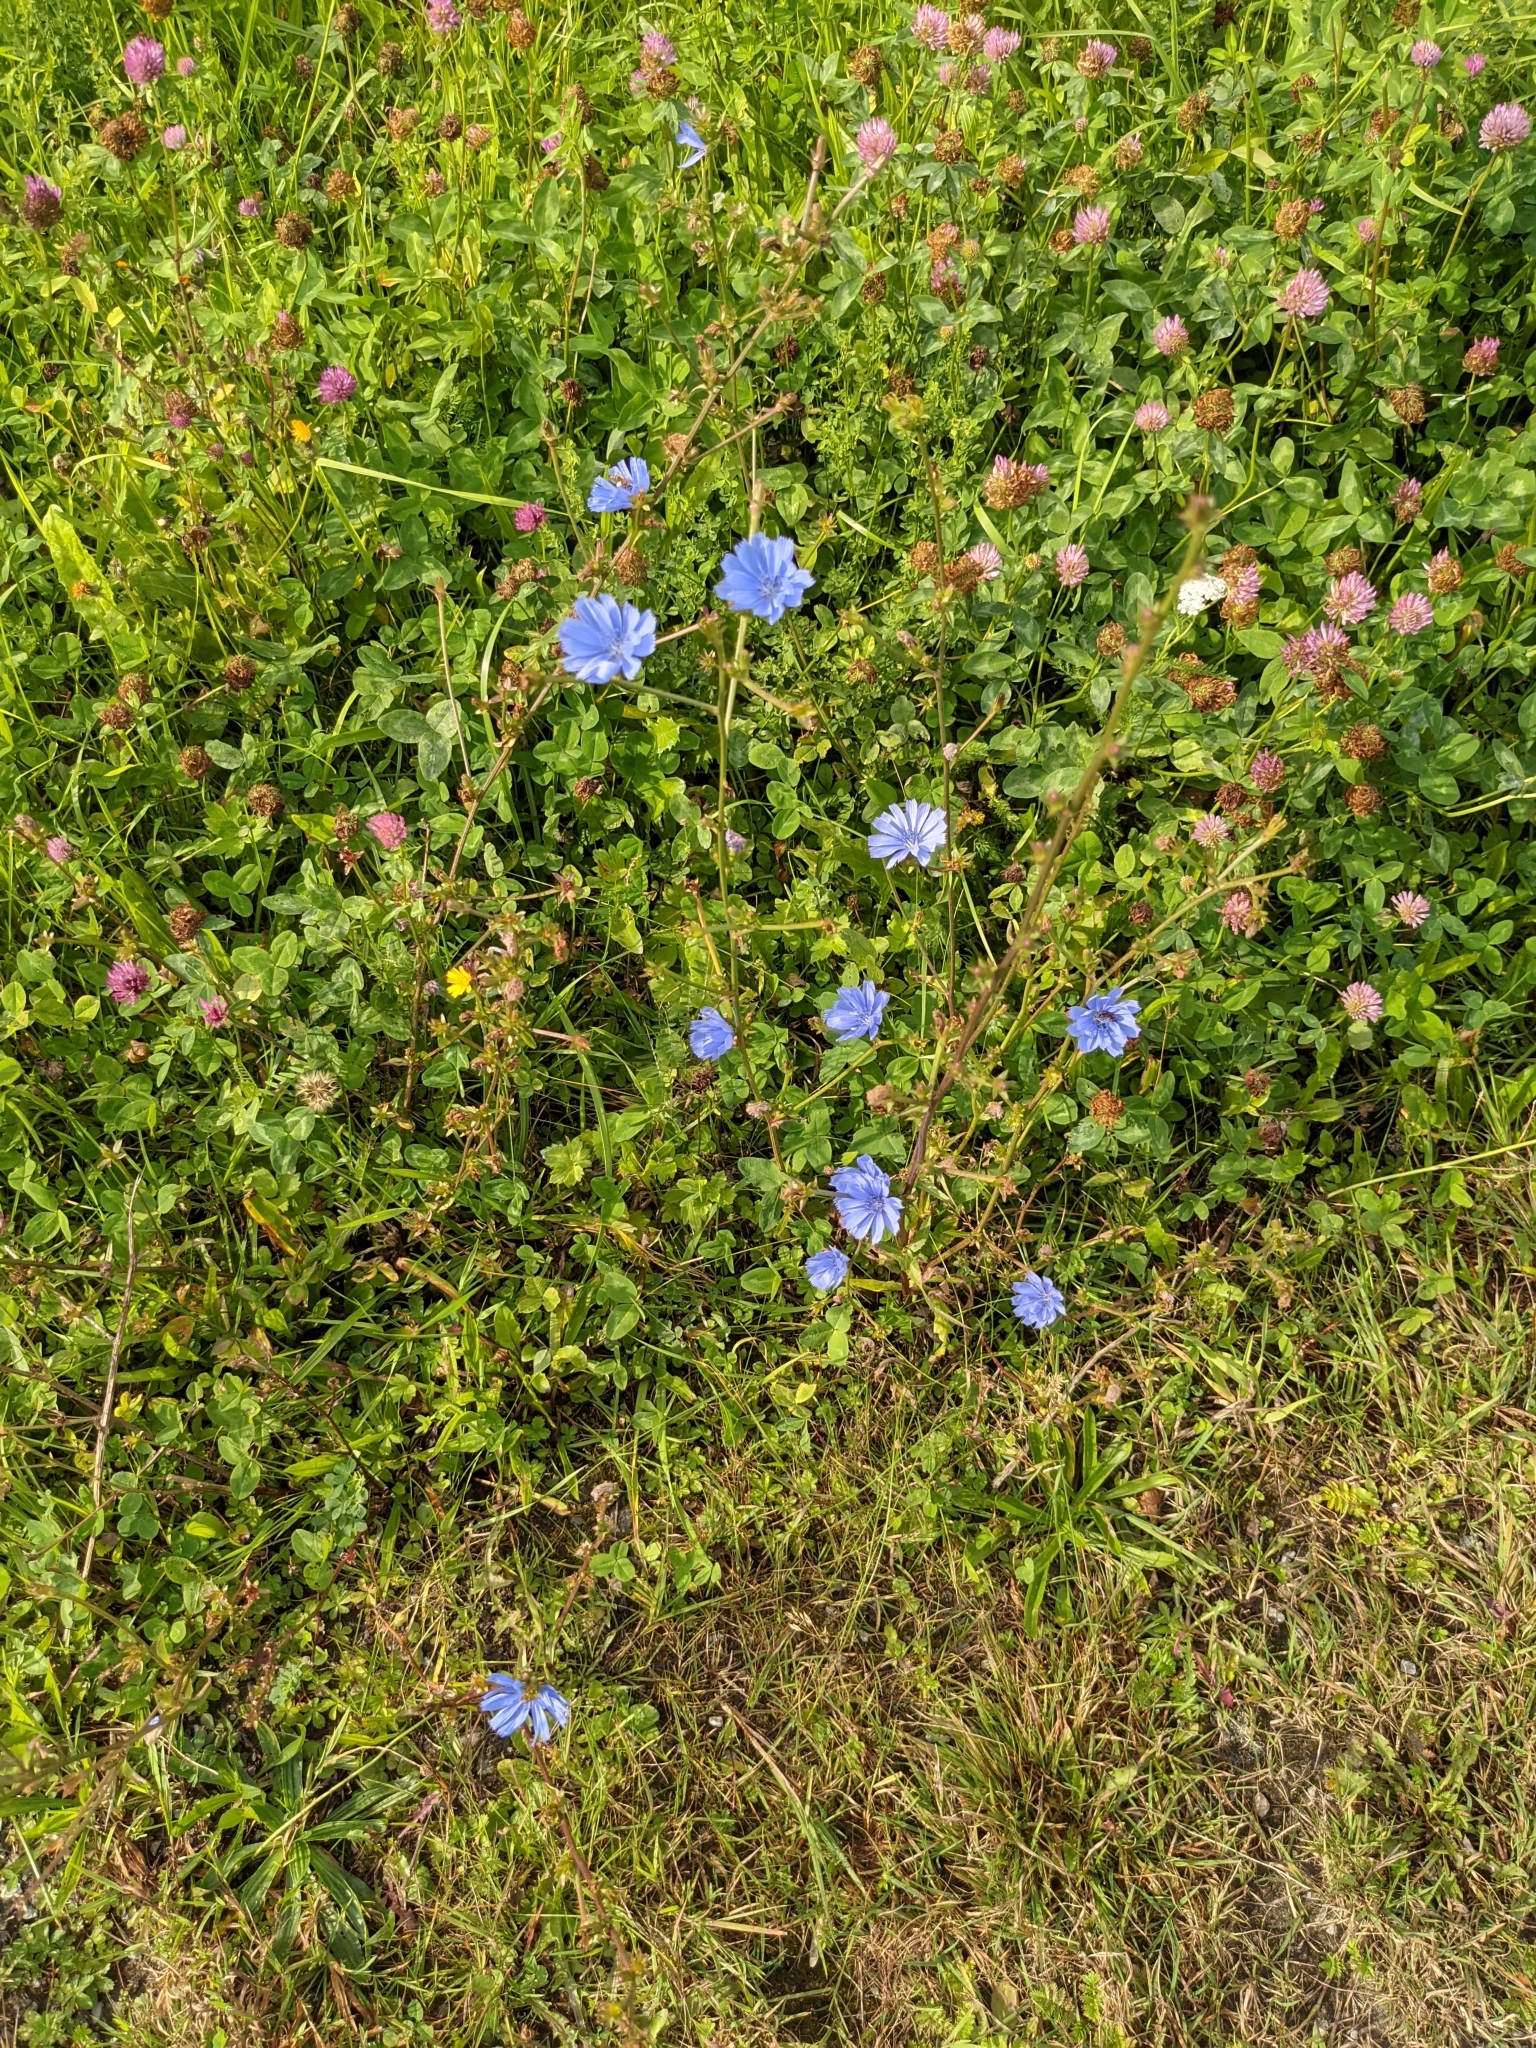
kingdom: Plantae
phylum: Tracheophyta
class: Magnoliopsida
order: Asterales
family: Asteraceae
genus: Cichorium
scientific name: Cichorium intybus
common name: Chicory
